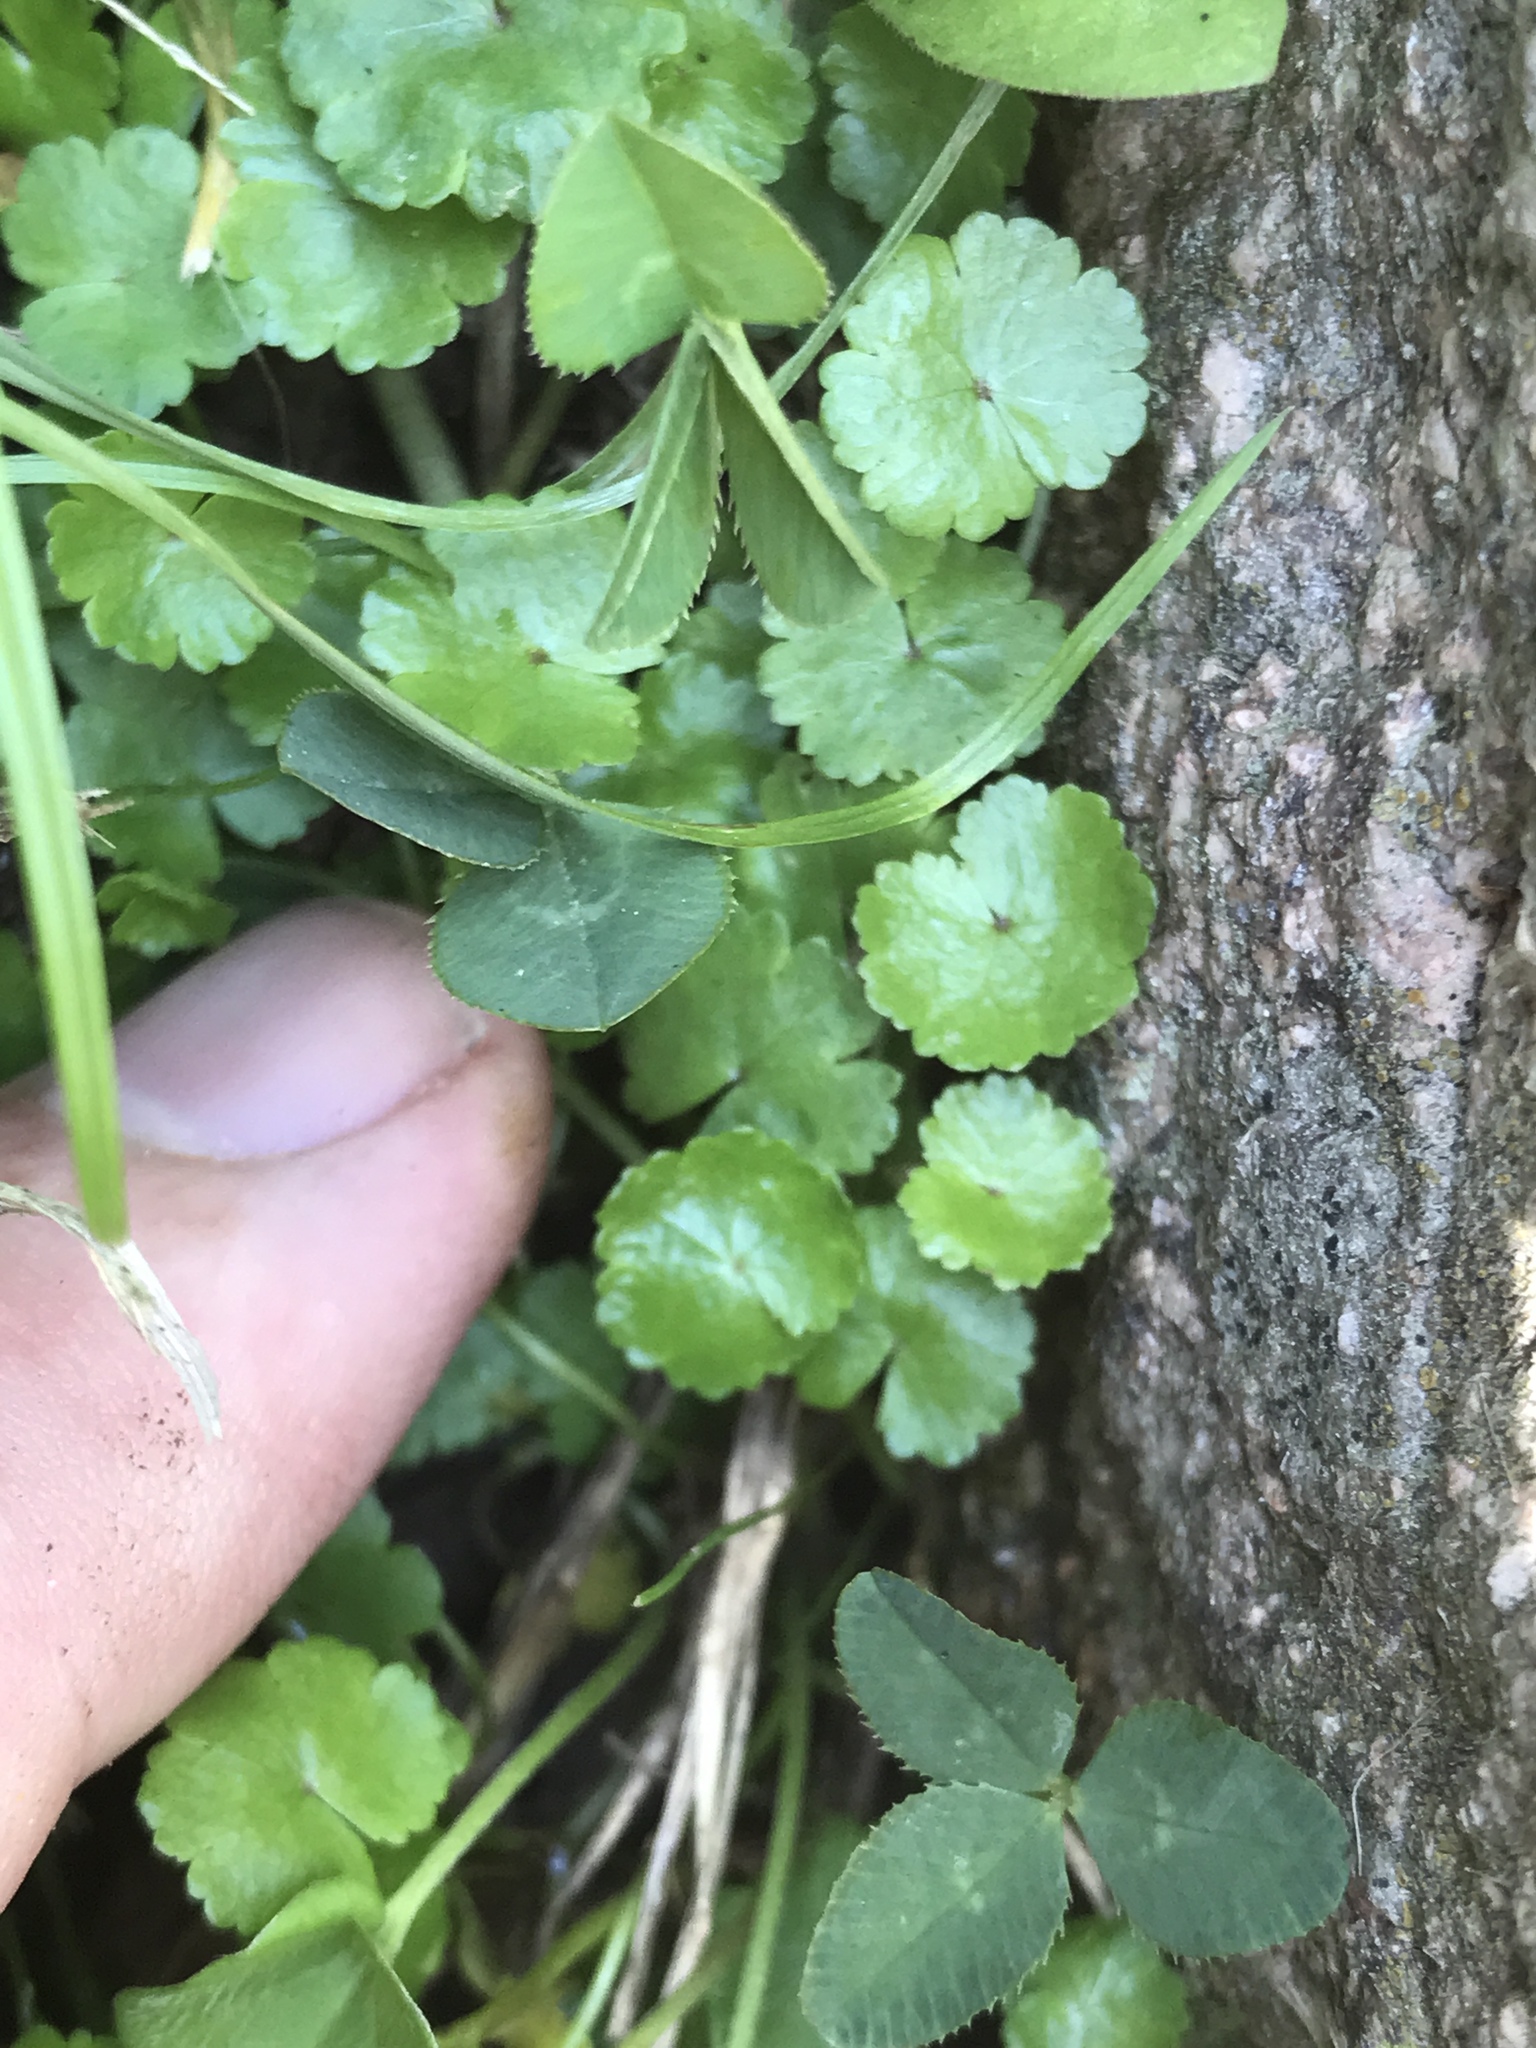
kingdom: Plantae
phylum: Tracheophyta
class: Magnoliopsida
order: Apiales
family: Araliaceae
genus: Hydrocotyle
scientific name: Hydrocotyle sibthorpioides
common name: Lawn marshpennywort
